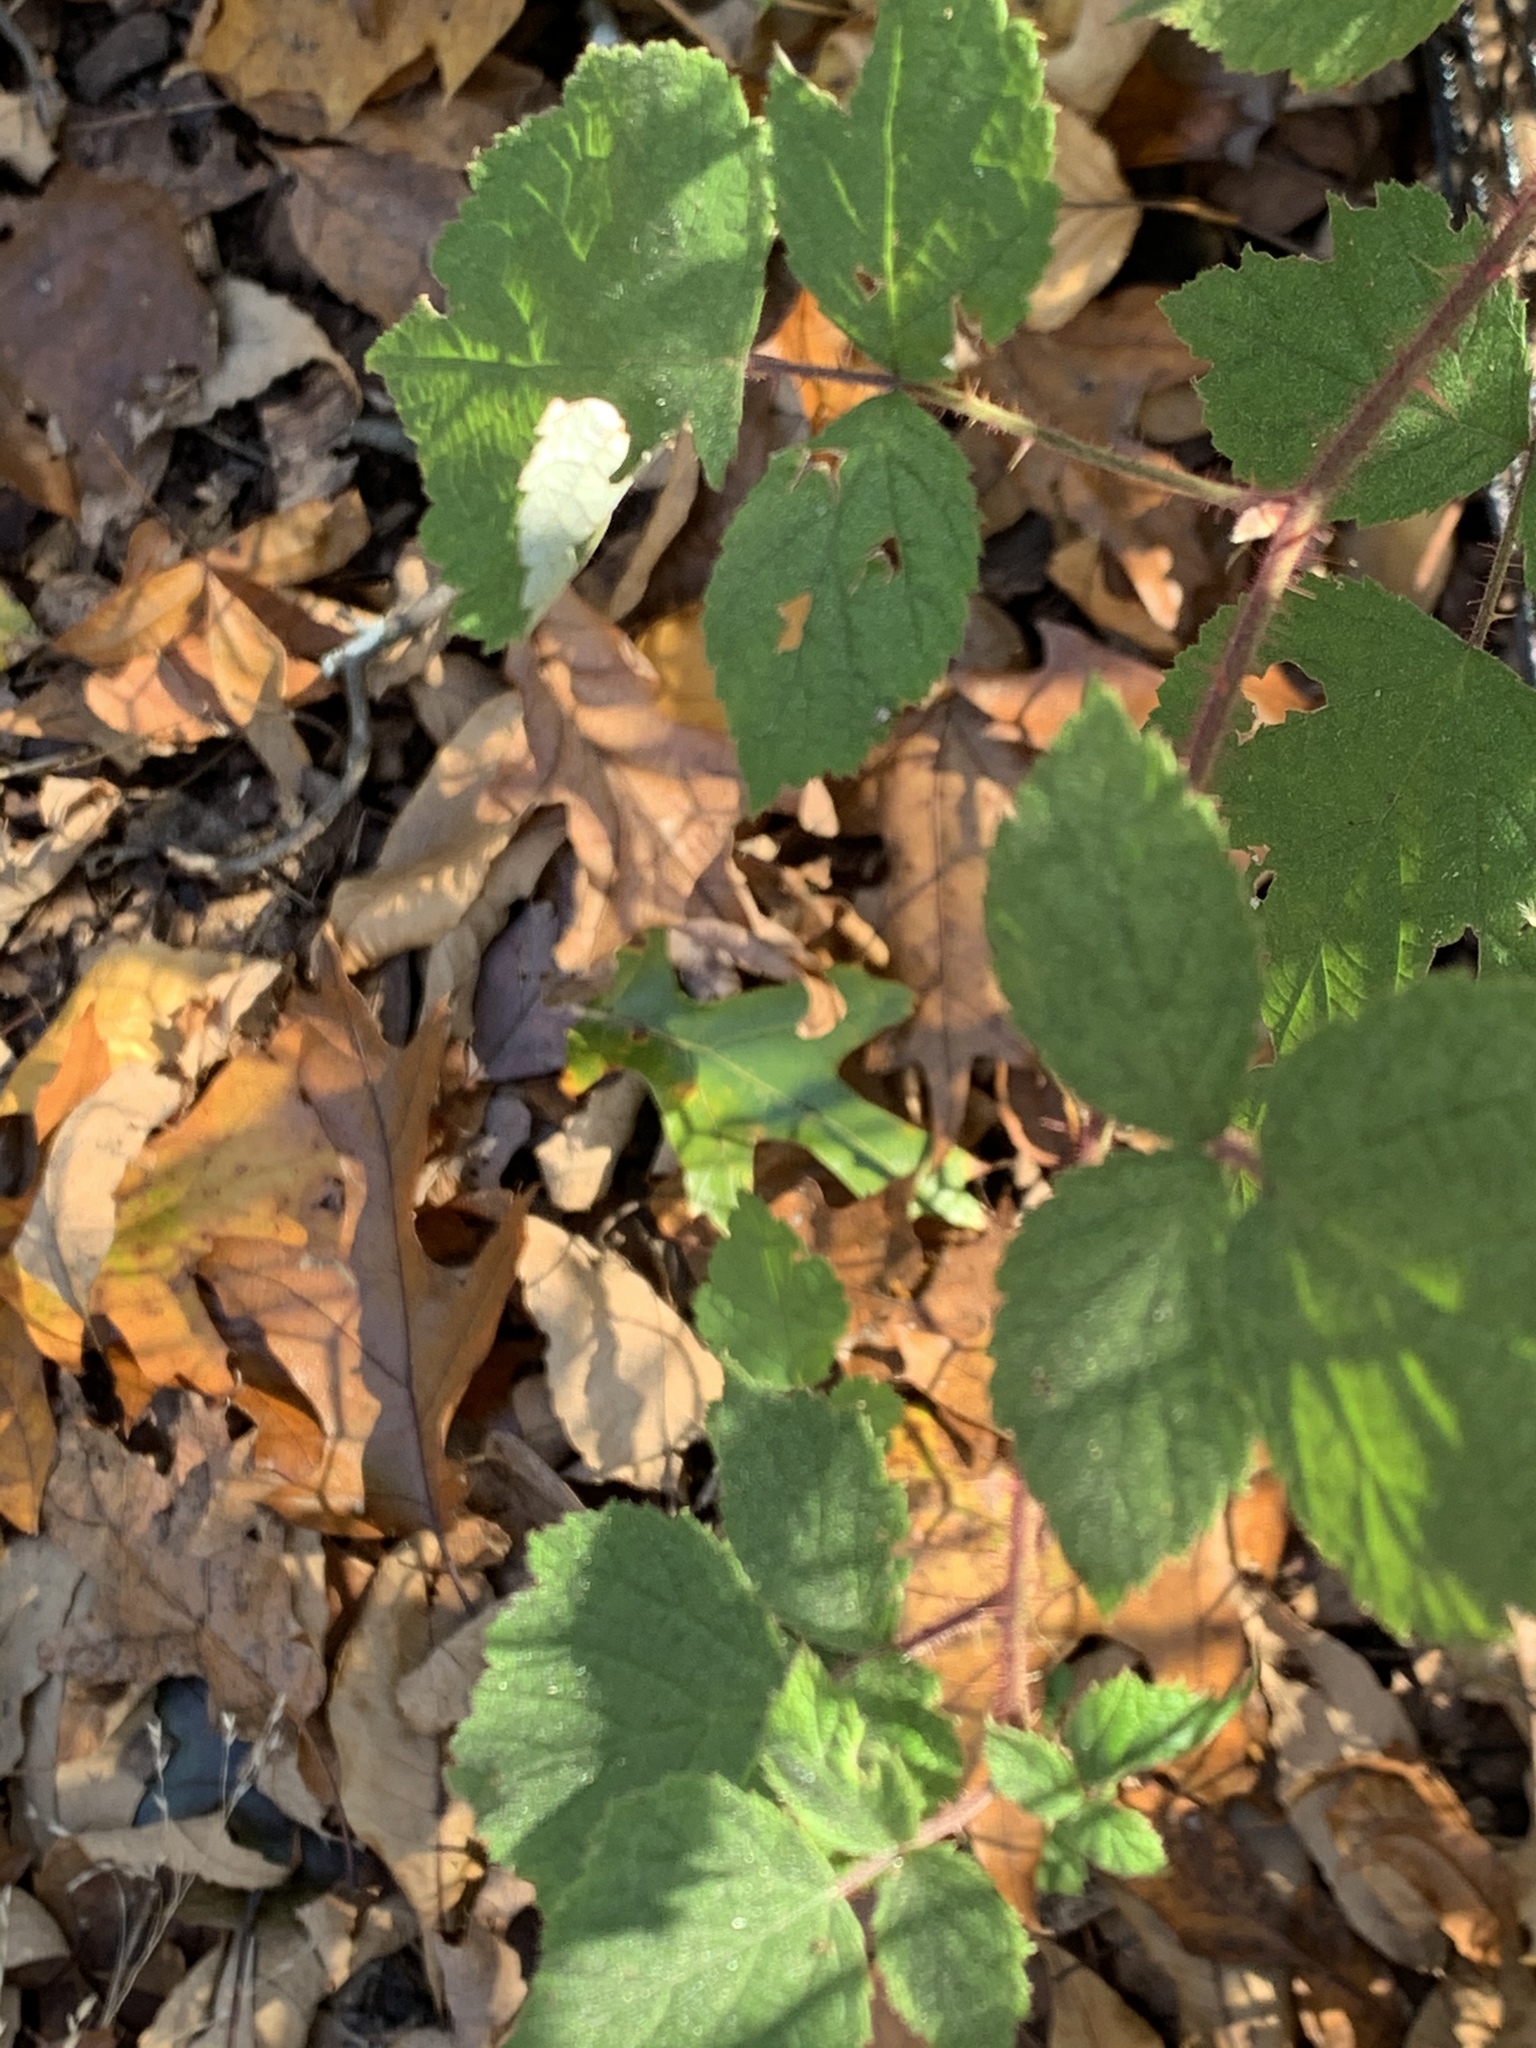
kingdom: Plantae
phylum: Tracheophyta
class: Magnoliopsida
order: Rosales
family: Rosaceae
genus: Rubus
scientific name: Rubus phoenicolasius
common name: Japanese wineberry
